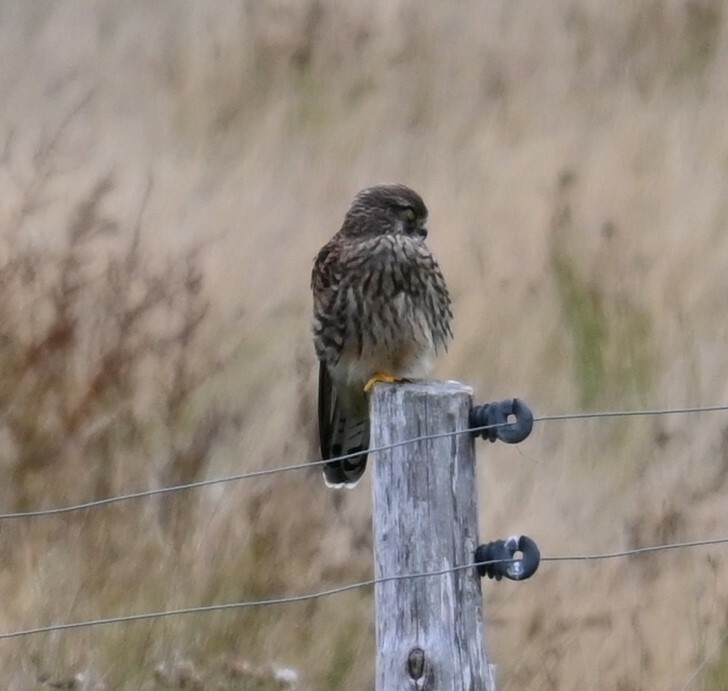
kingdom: Animalia
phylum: Chordata
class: Aves
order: Falconiformes
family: Falconidae
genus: Falco
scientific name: Falco tinnunculus
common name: Common kestrel
